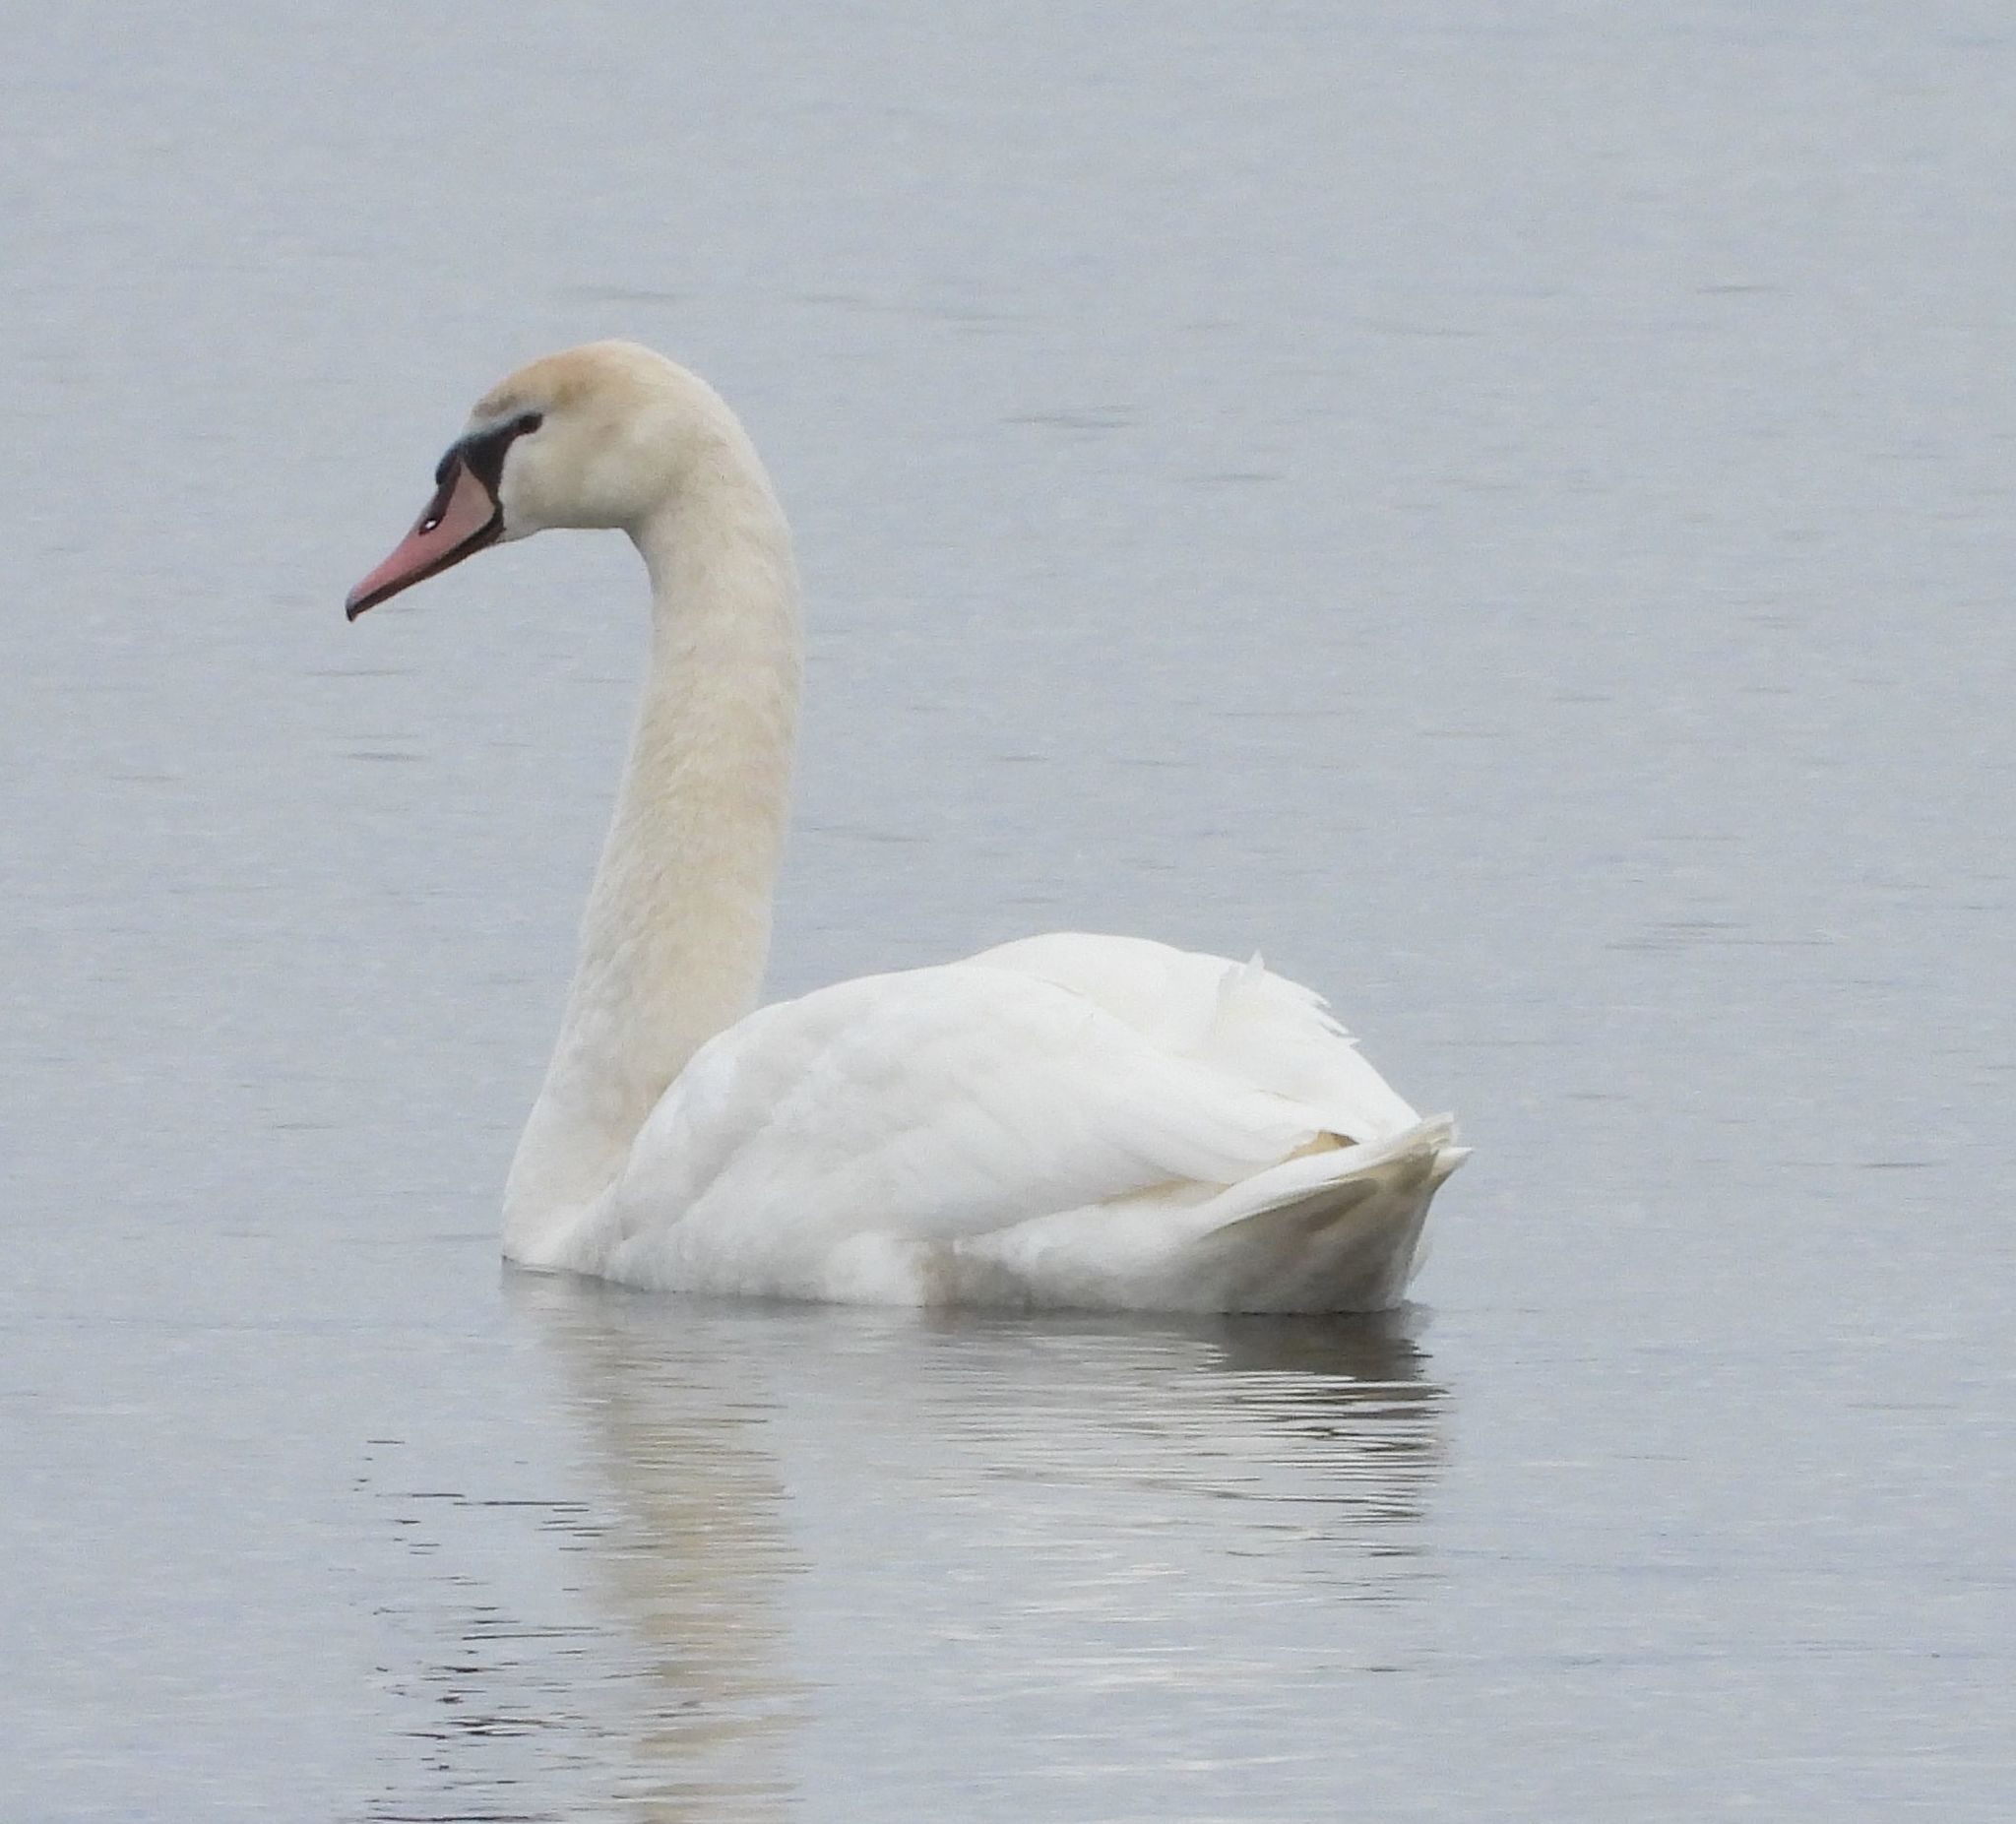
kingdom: Animalia
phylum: Chordata
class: Aves
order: Anseriformes
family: Anatidae
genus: Cygnus
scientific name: Cygnus olor
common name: Mute swan
